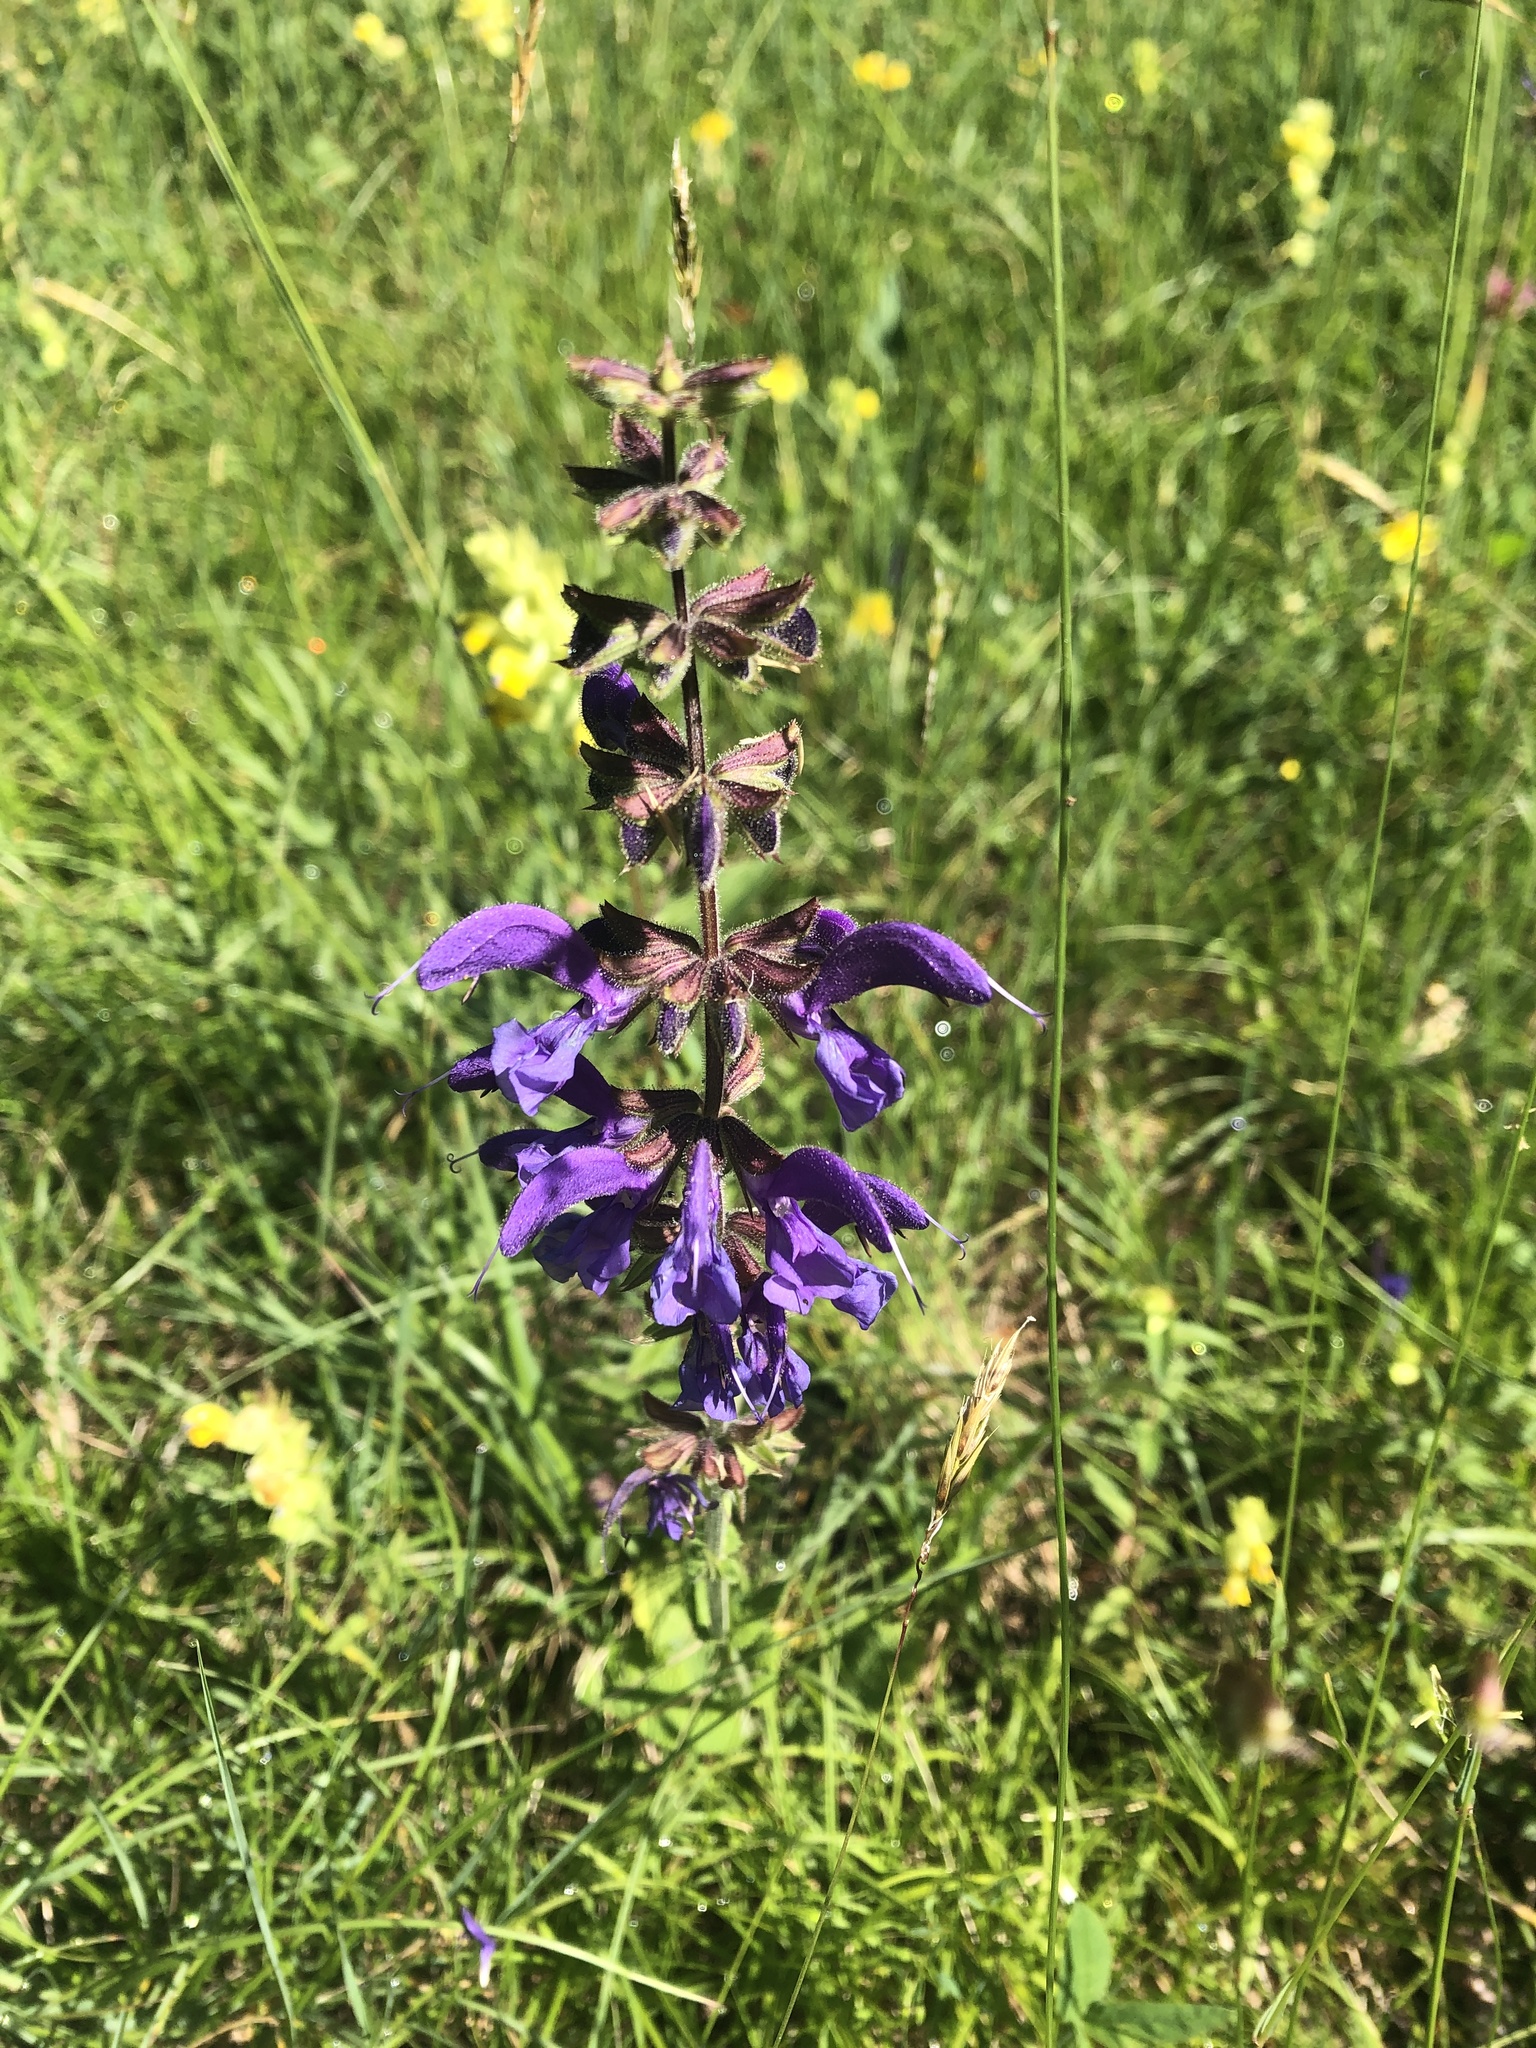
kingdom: Plantae
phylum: Tracheophyta
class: Magnoliopsida
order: Lamiales
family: Lamiaceae
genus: Salvia
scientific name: Salvia pratensis
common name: Meadow sage
